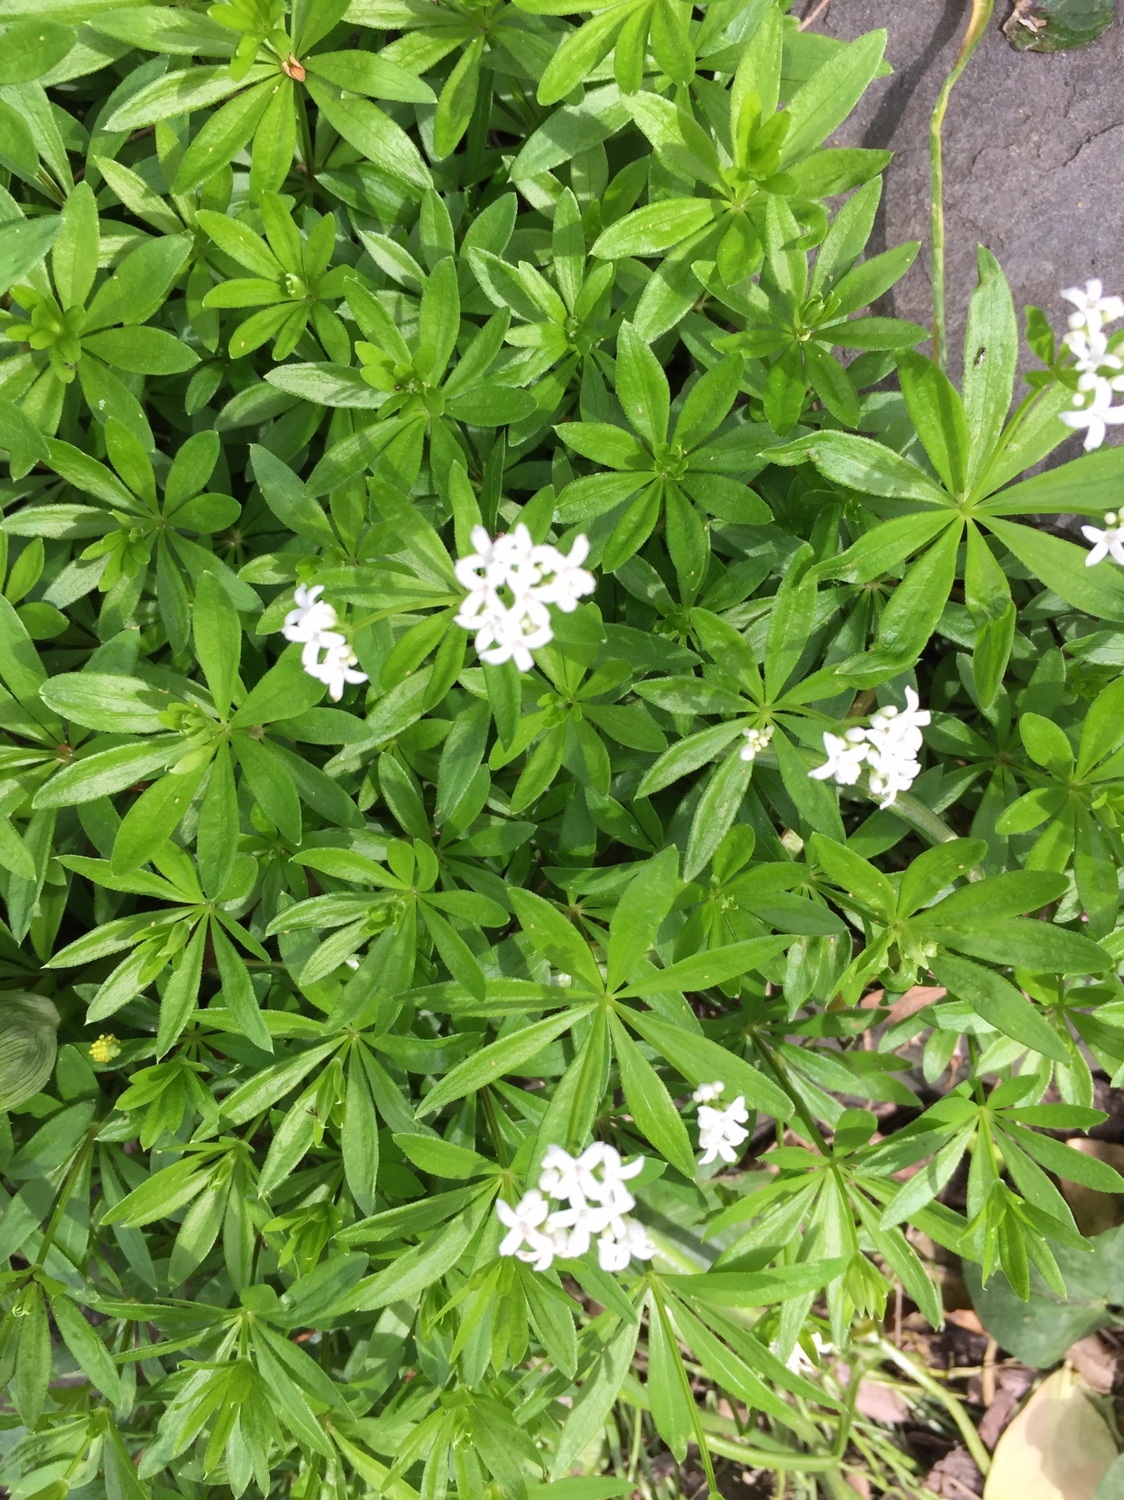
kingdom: Plantae
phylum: Tracheophyta
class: Magnoliopsida
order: Gentianales
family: Rubiaceae
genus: Galium
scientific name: Galium odoratum
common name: Sweet woodruff
